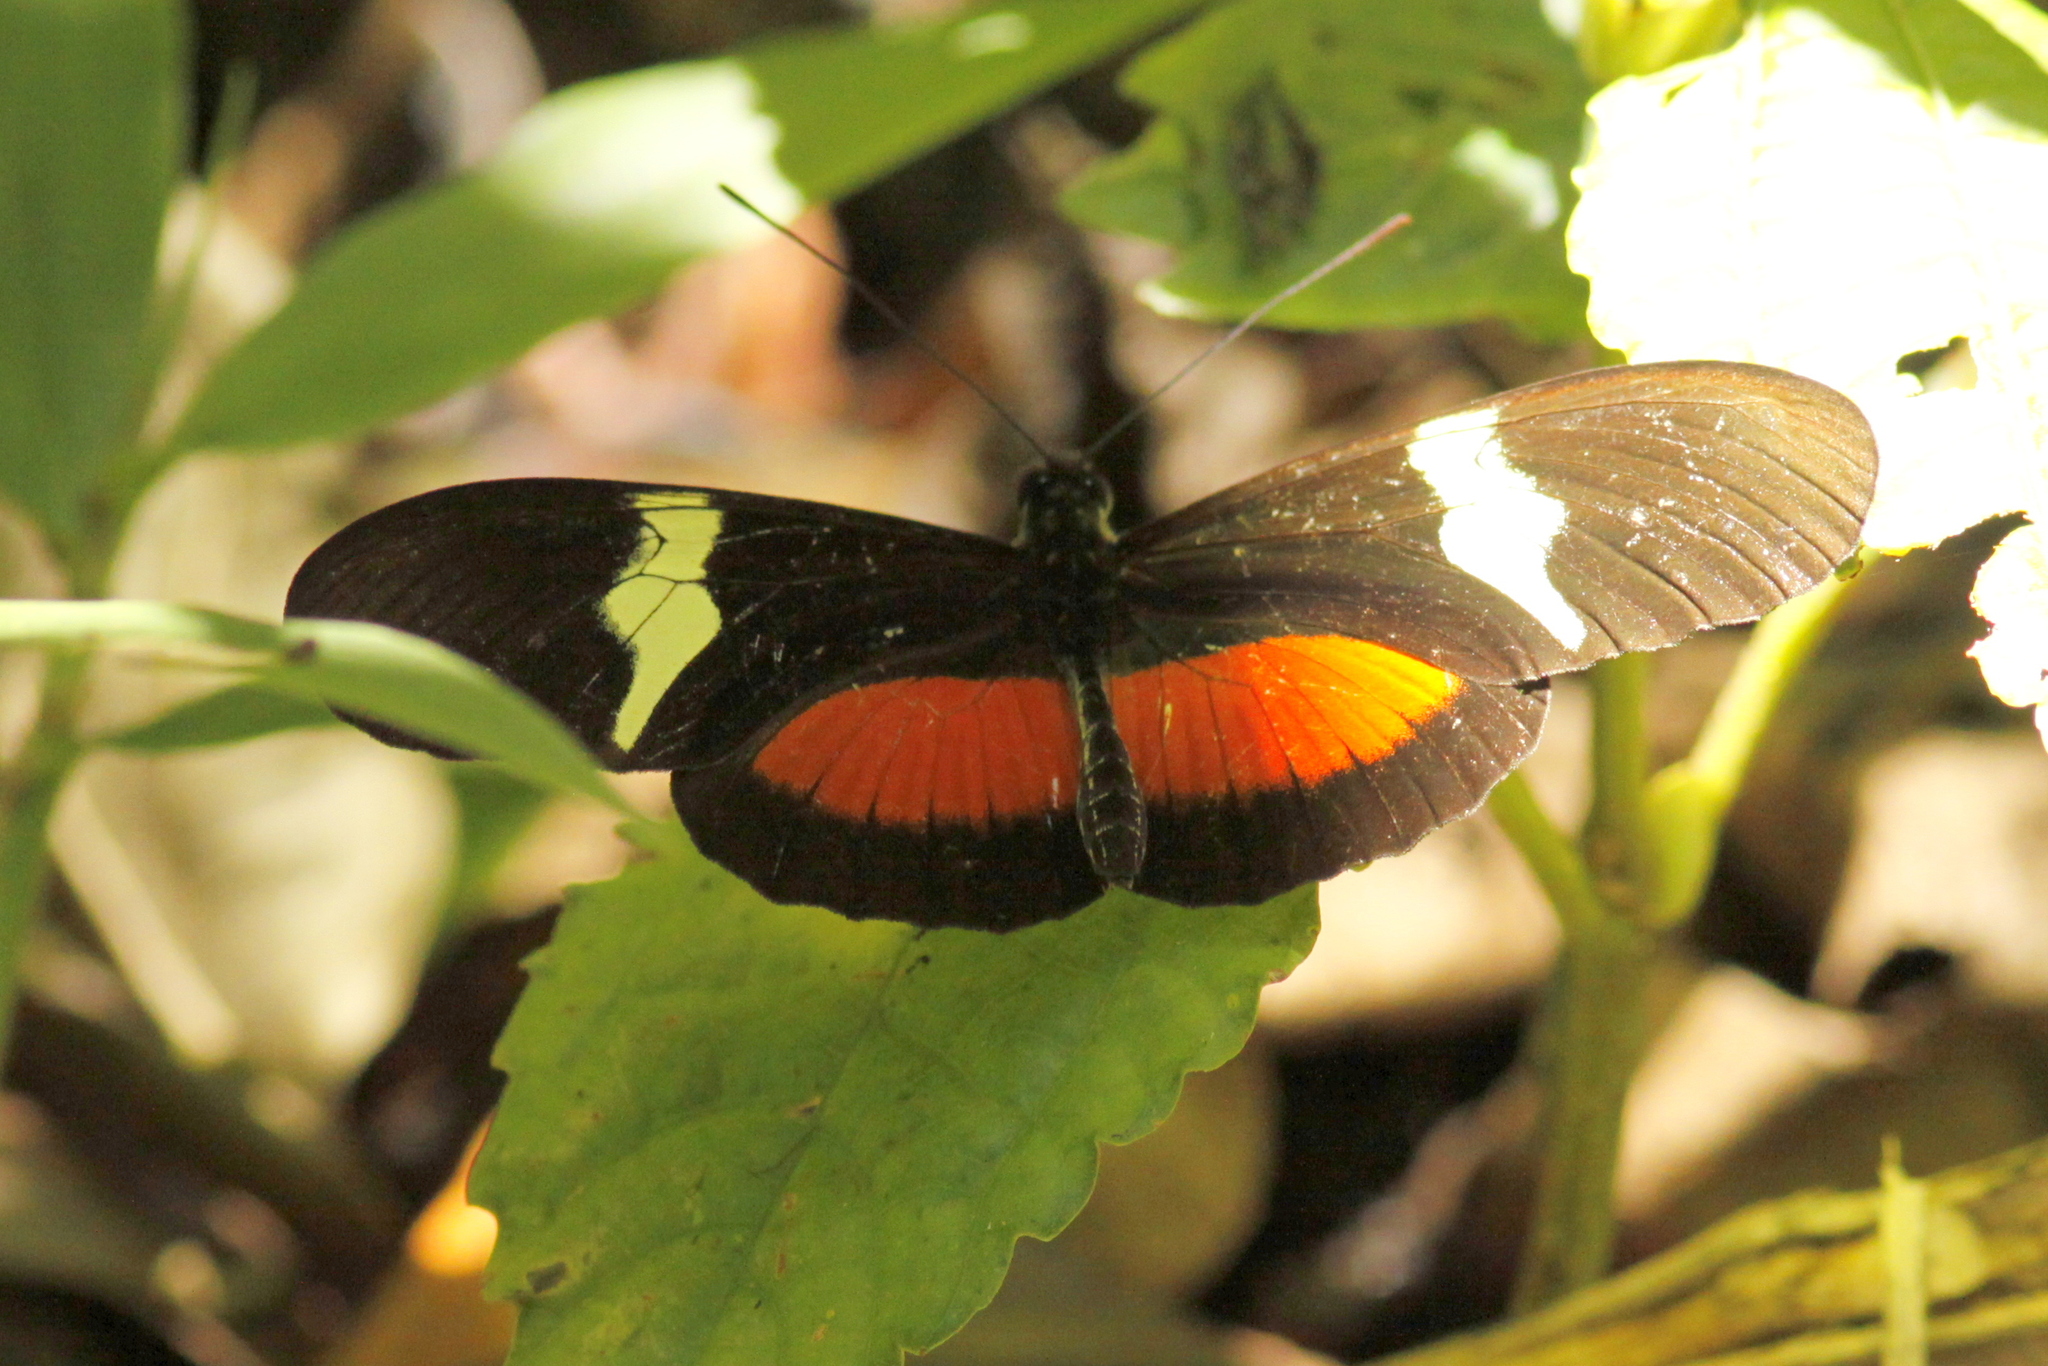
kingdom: Animalia
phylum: Arthropoda
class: Insecta
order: Lepidoptera
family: Nymphalidae
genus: Heliconius
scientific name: Heliconius clysonymus
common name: Clysonymus longwing
